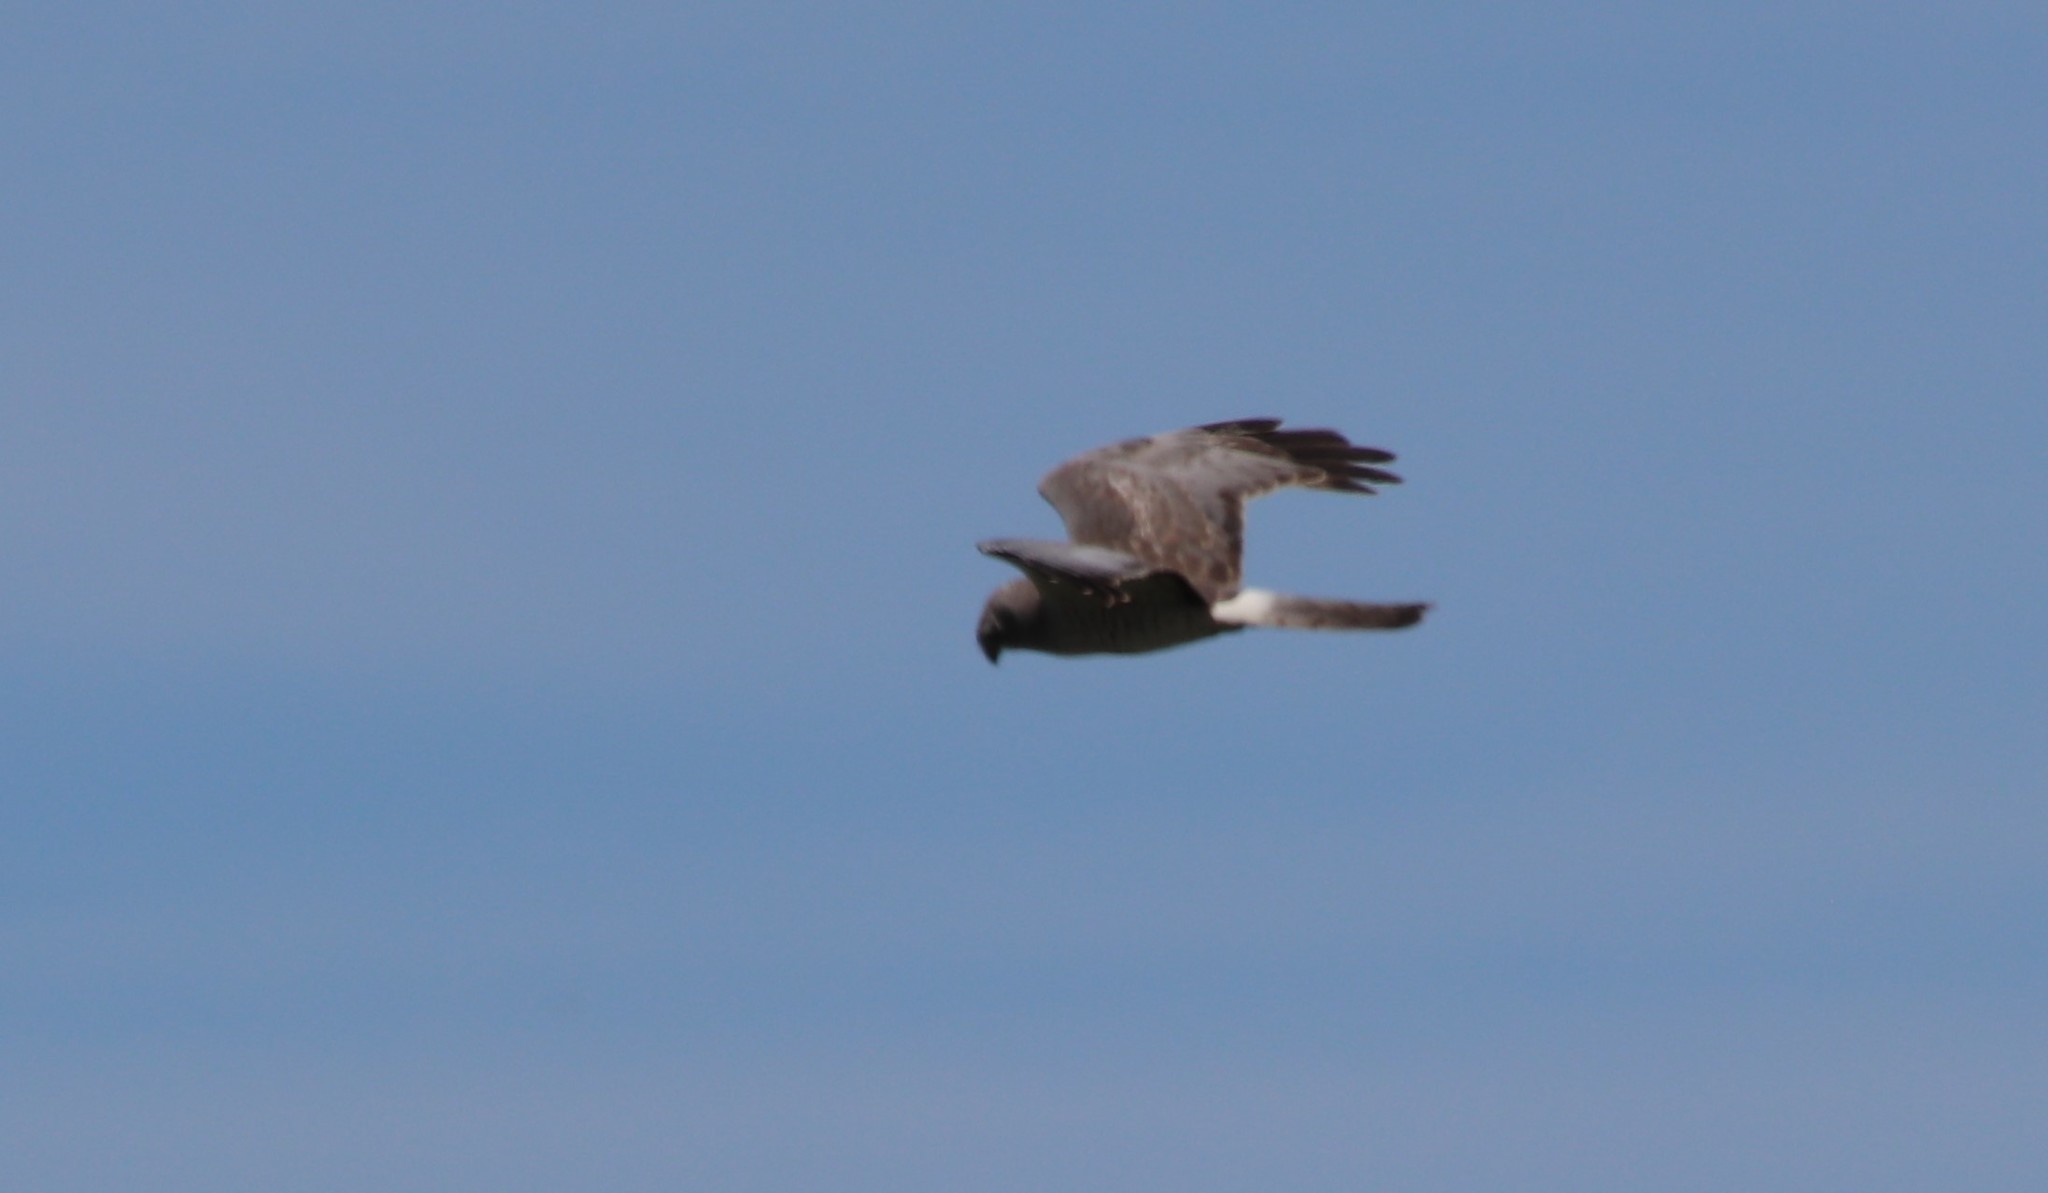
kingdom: Animalia
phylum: Chordata
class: Aves
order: Accipitriformes
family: Accipitridae
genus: Circus
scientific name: Circus cyaneus
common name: Hen harrier
